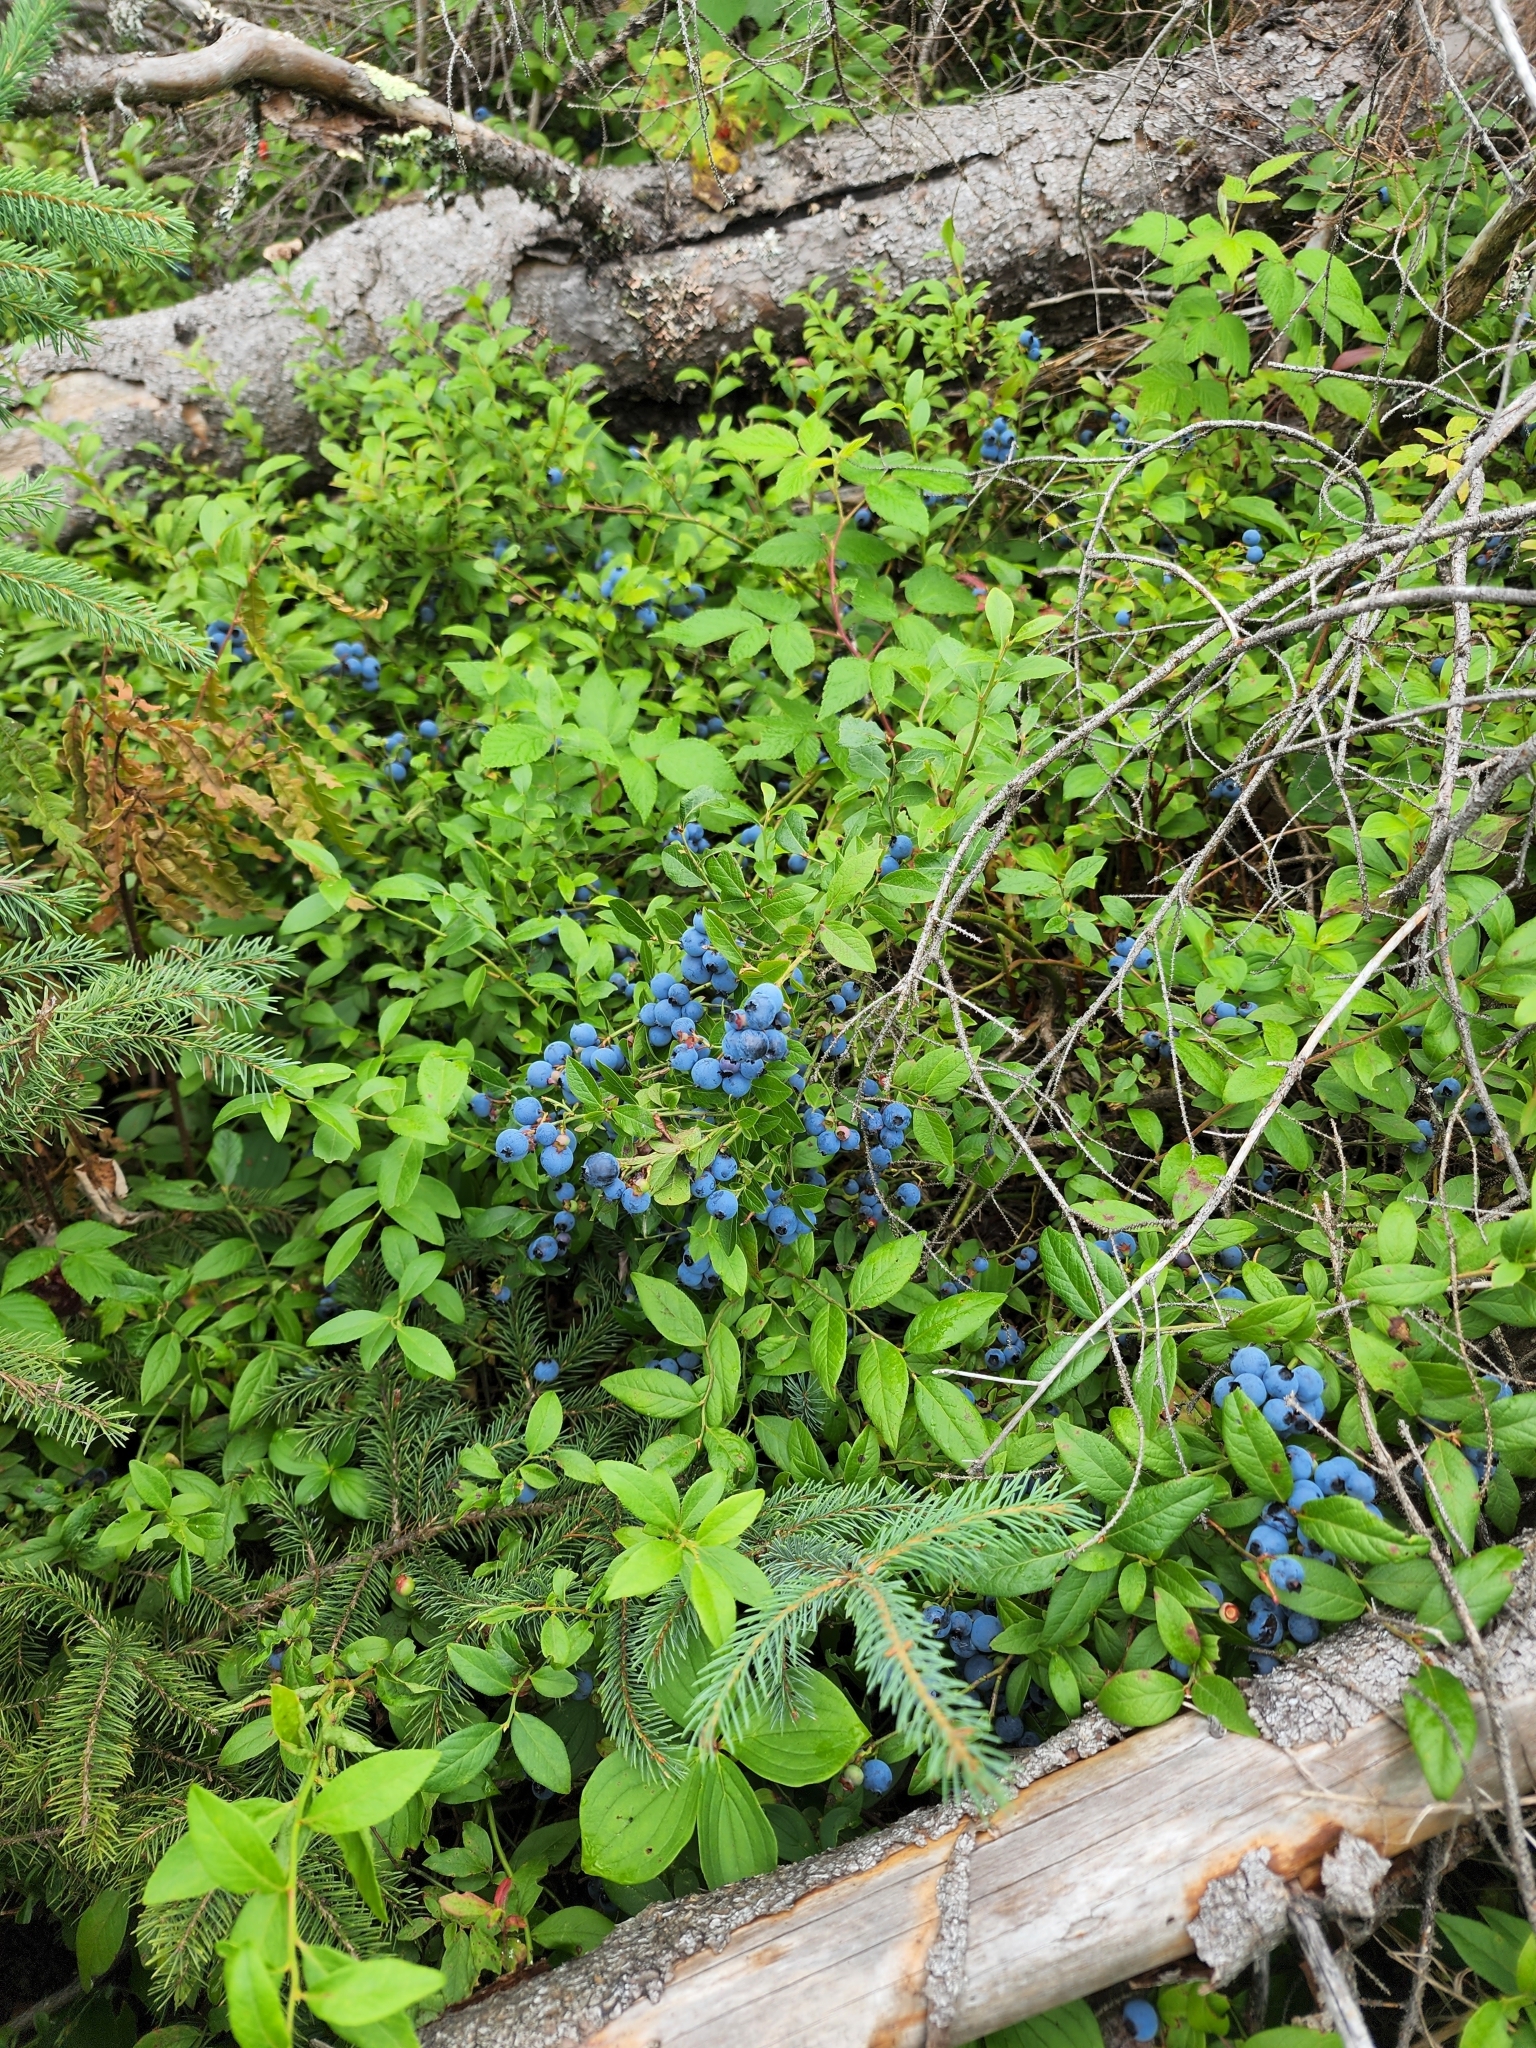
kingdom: Plantae
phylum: Tracheophyta
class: Magnoliopsida
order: Ericales
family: Ericaceae
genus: Vaccinium
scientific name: Vaccinium angustifolium
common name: Early lowbush blueberry
